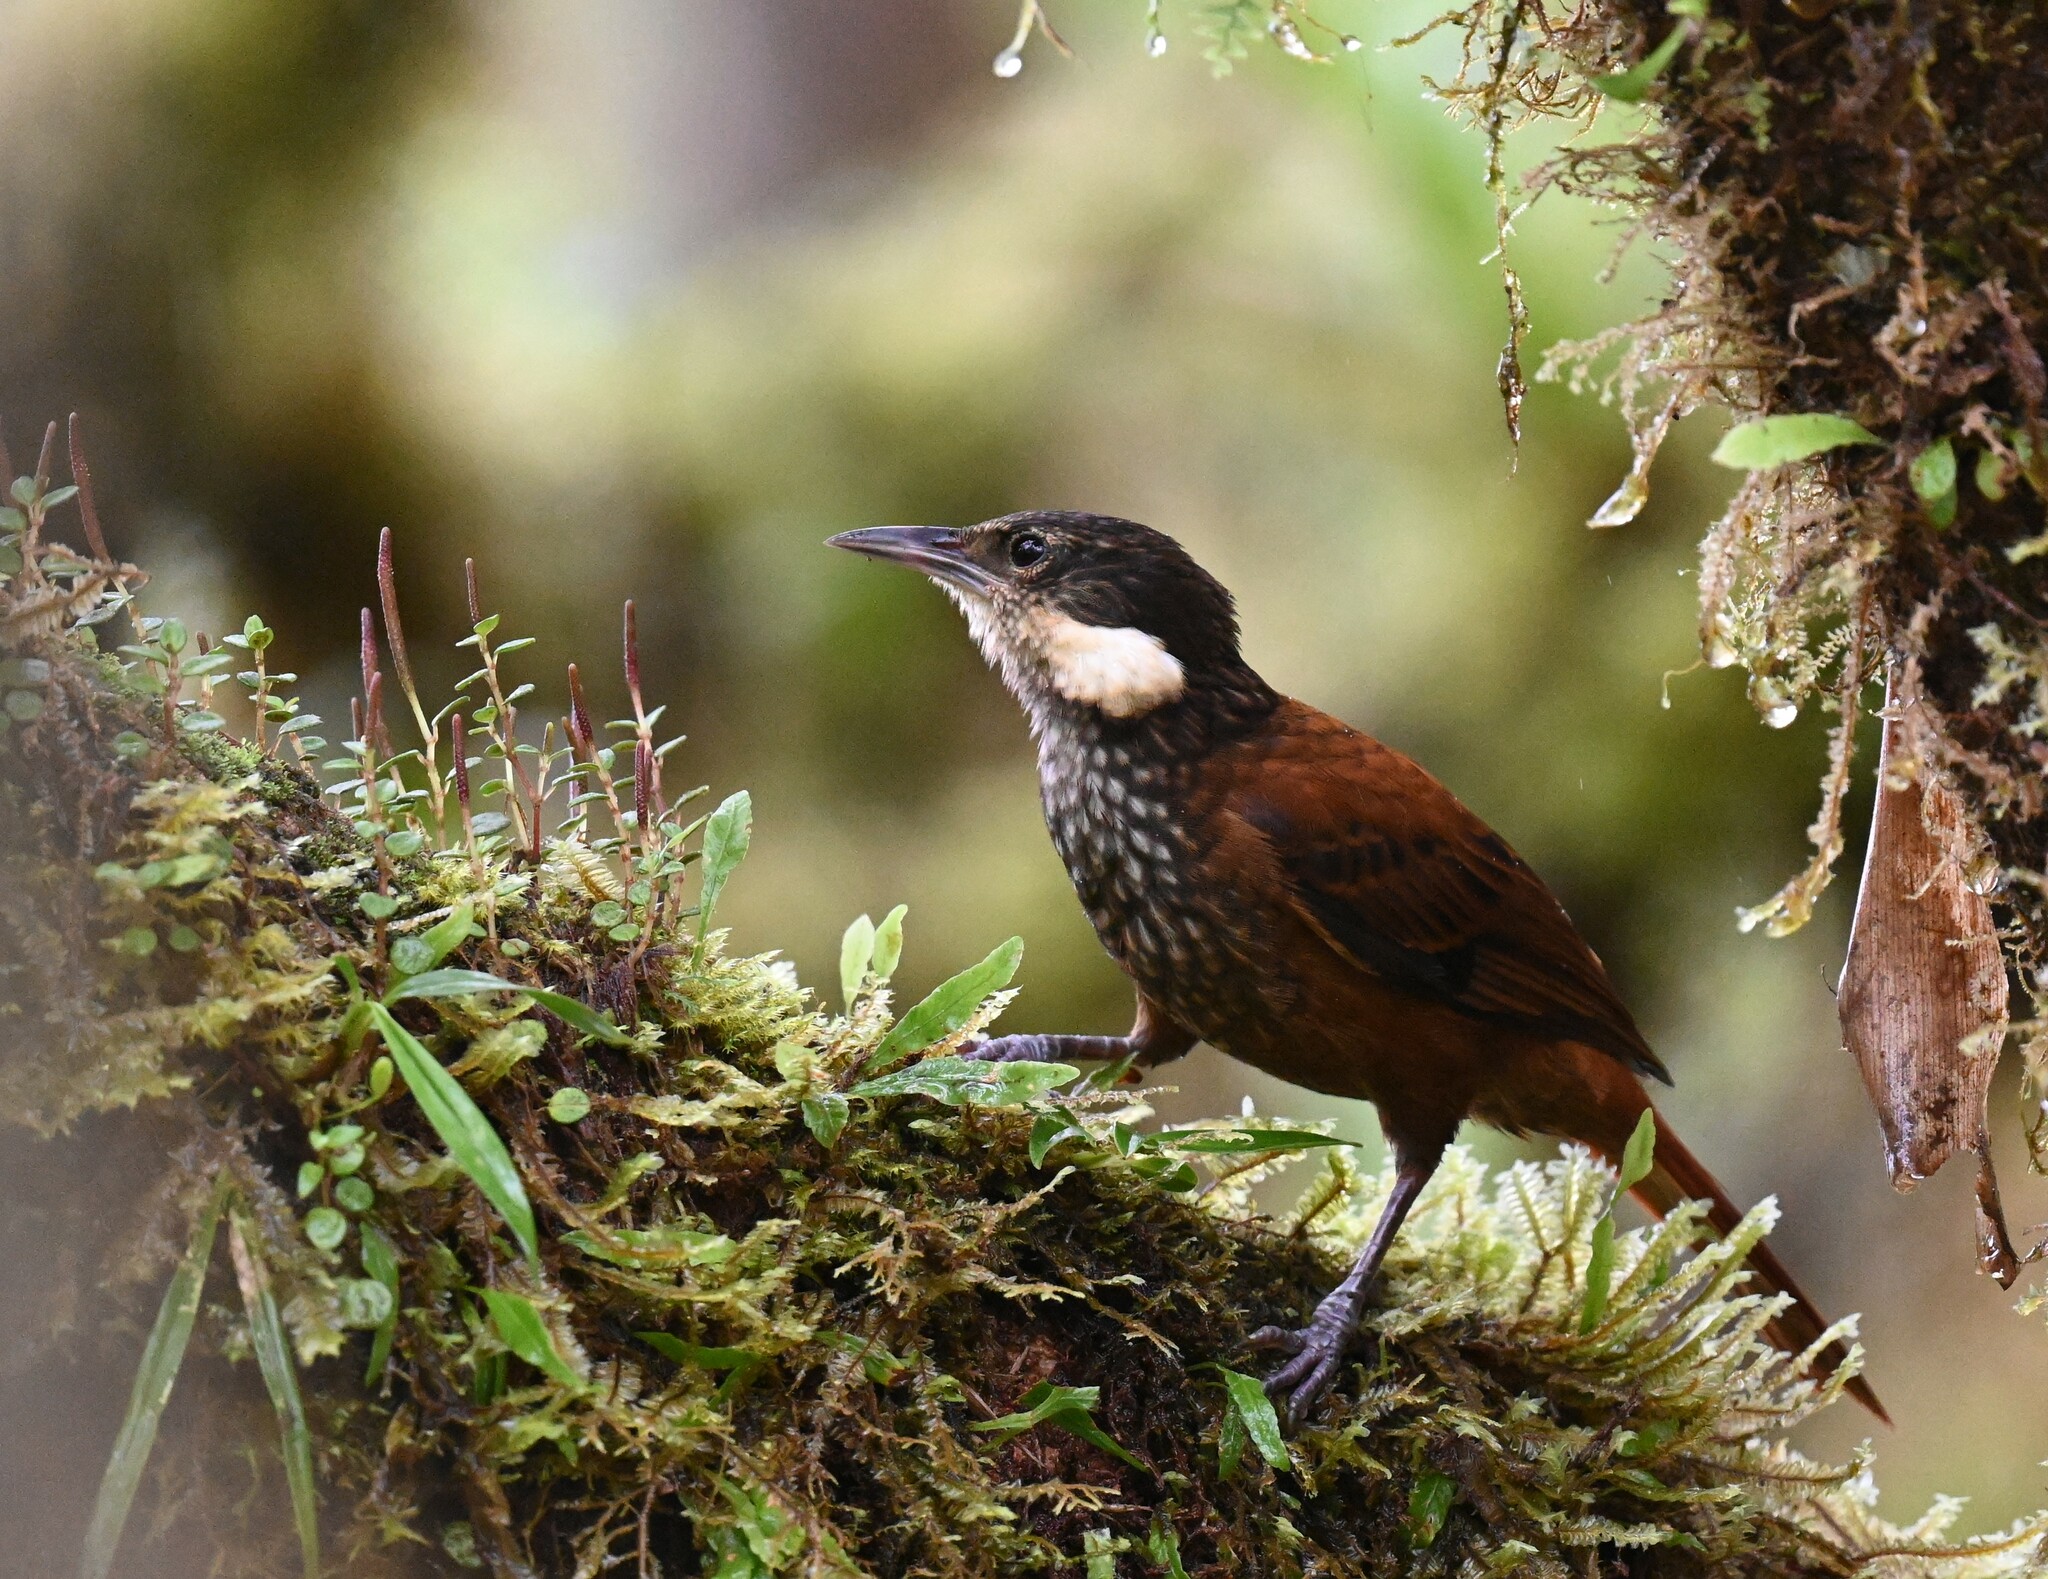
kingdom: Animalia
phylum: Chordata
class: Aves
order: Passeriformes
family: Furnariidae
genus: Pseudocolaptes
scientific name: Pseudocolaptes boissonneautii
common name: Streaked tuftedcheek
